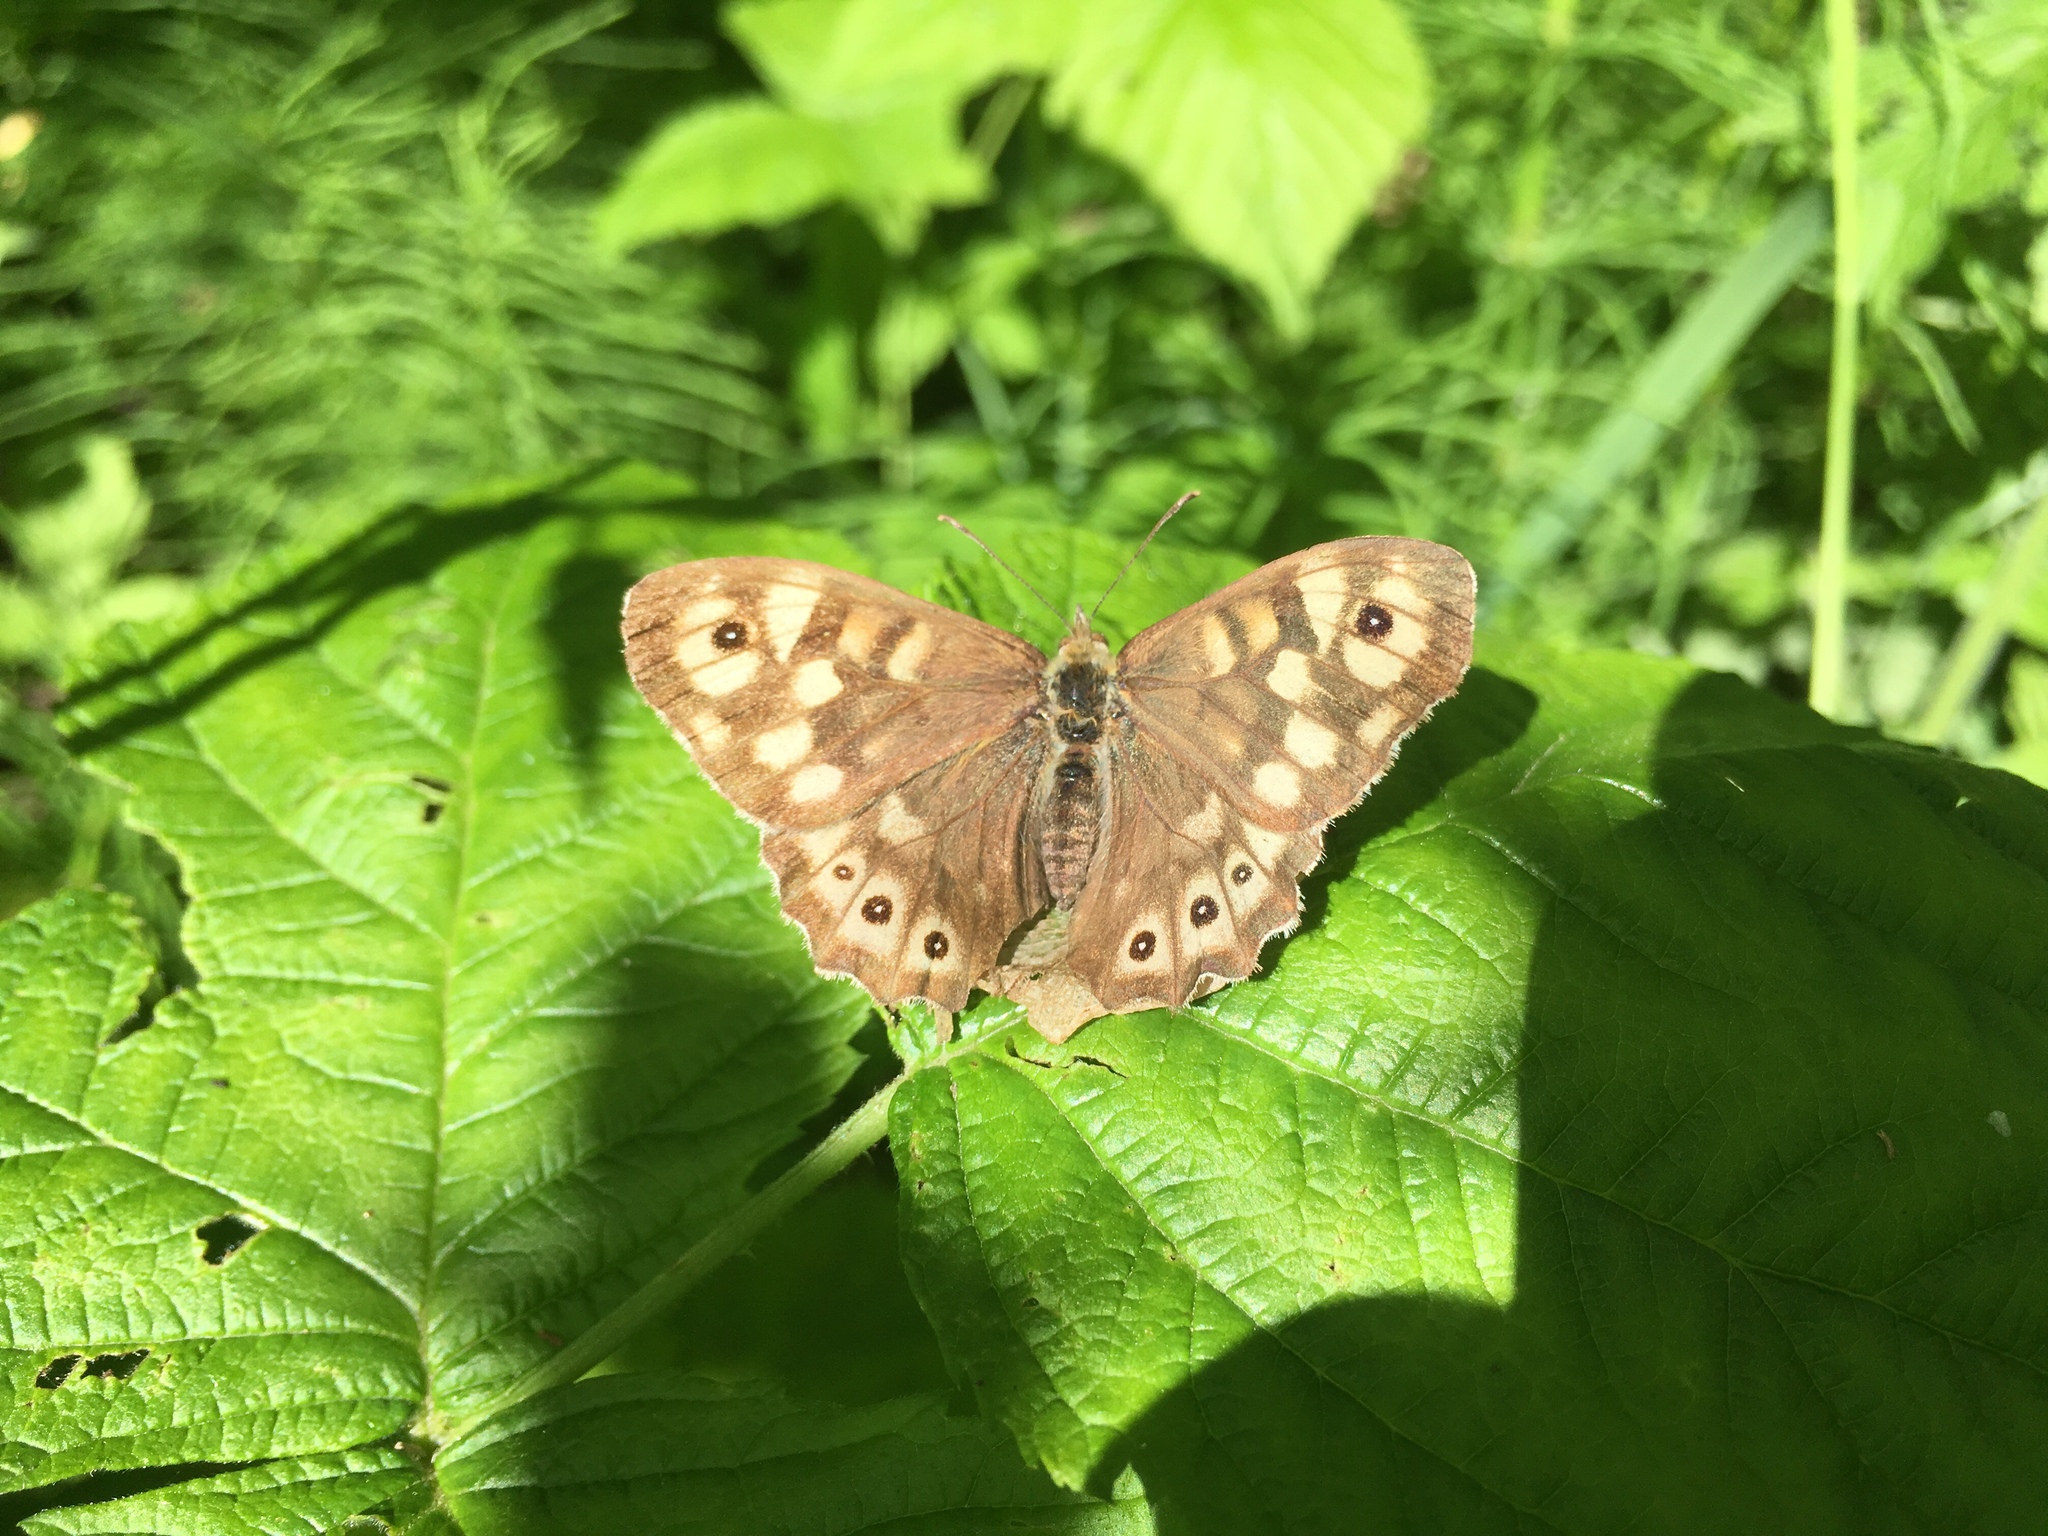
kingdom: Animalia
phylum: Arthropoda
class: Insecta
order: Lepidoptera
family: Nymphalidae
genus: Pararge
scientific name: Pararge aegeria
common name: Speckled wood
